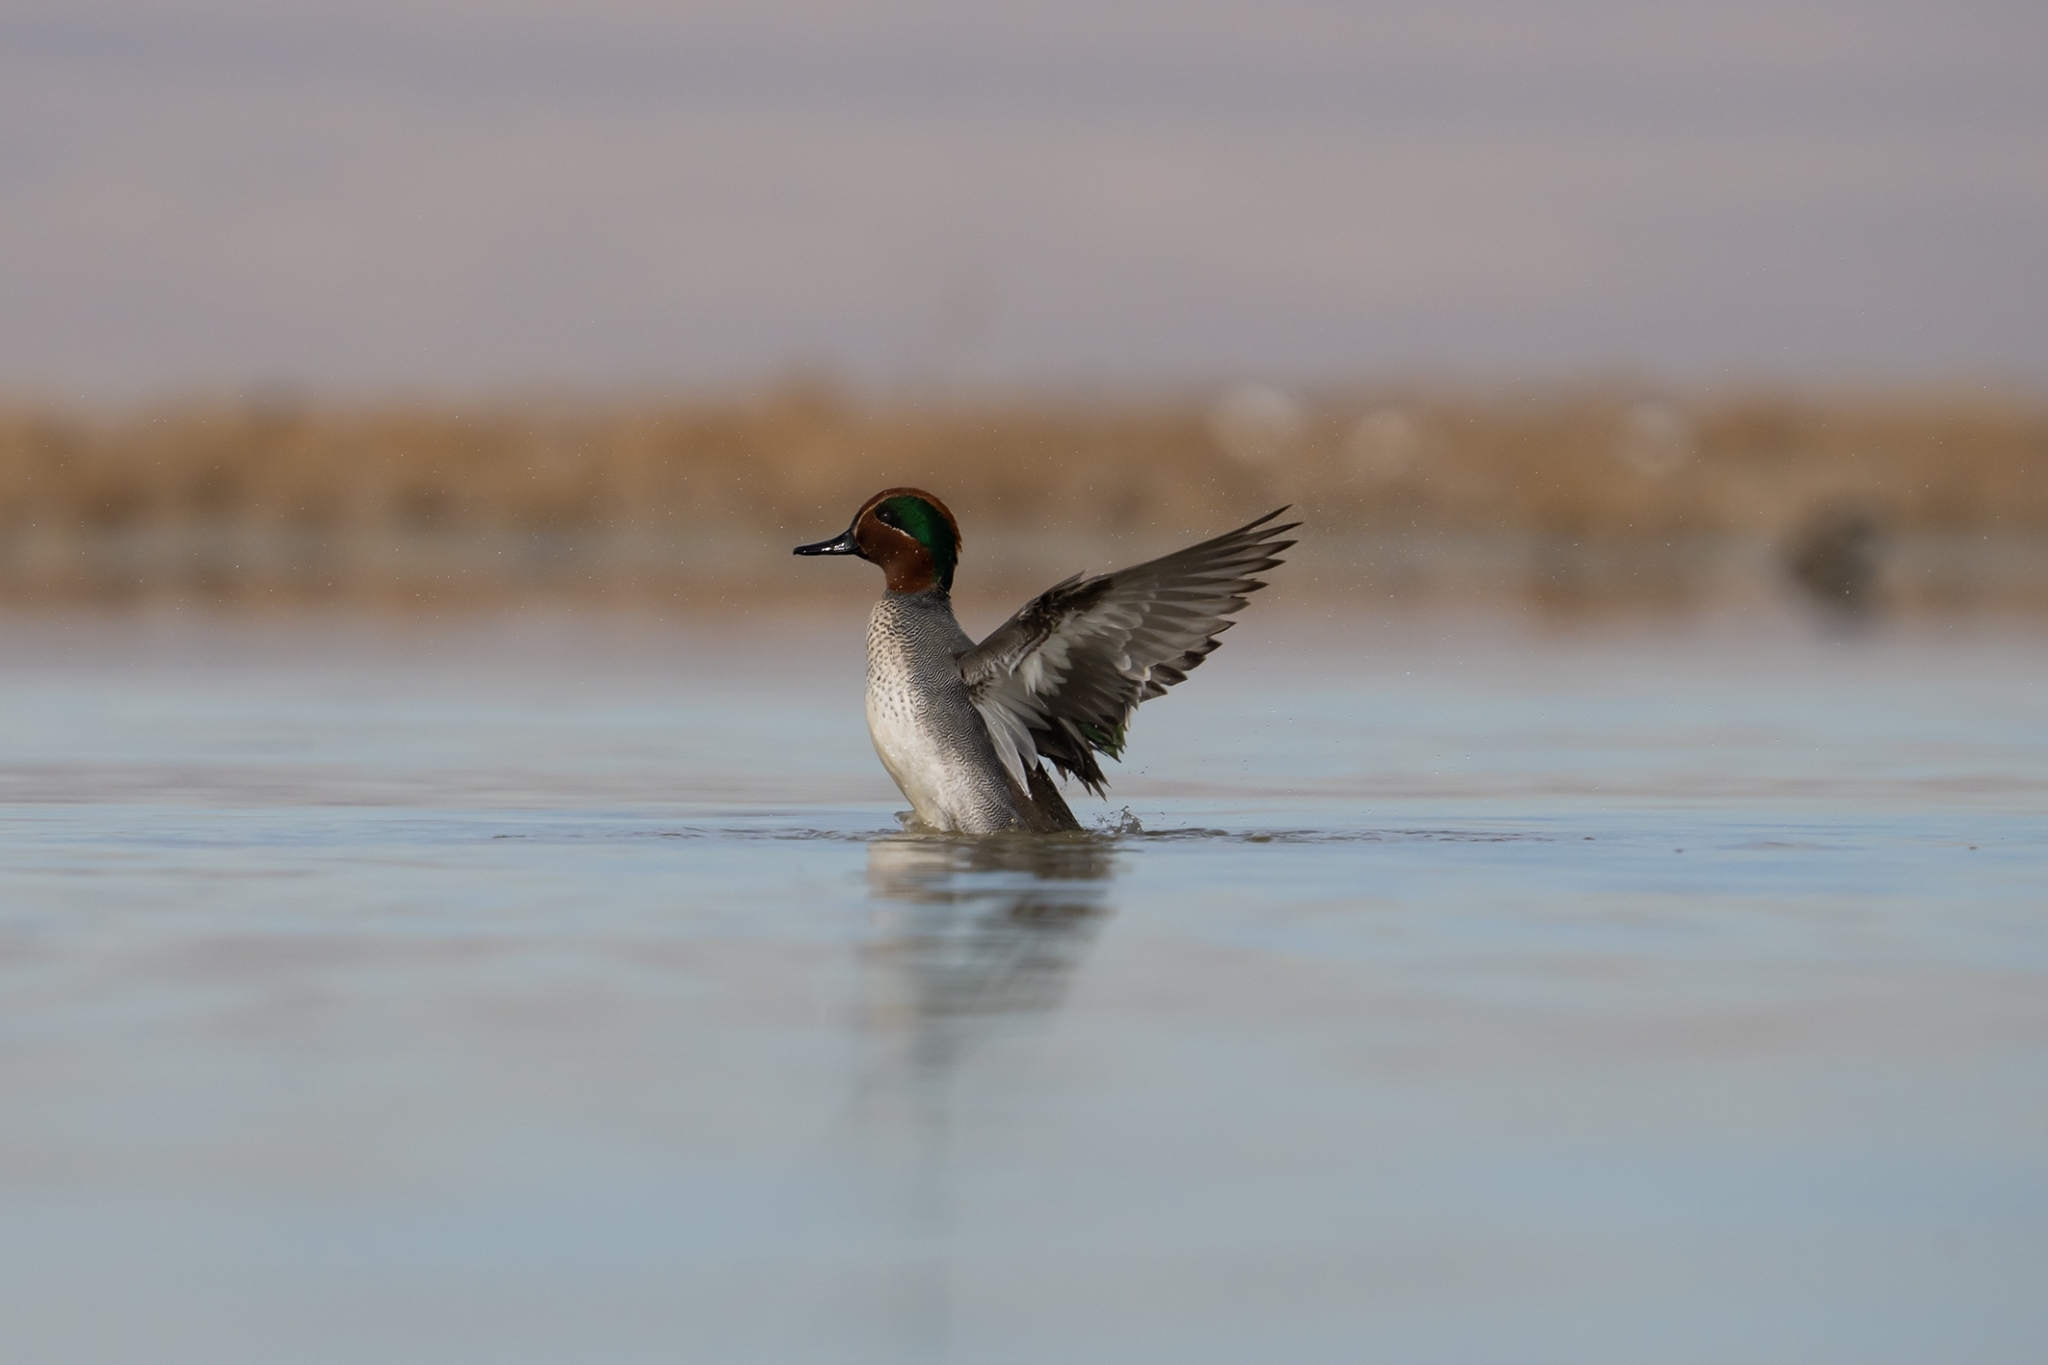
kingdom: Animalia
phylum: Chordata
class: Aves
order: Anseriformes
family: Anatidae
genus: Anas
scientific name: Anas crecca
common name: Eurasian teal
